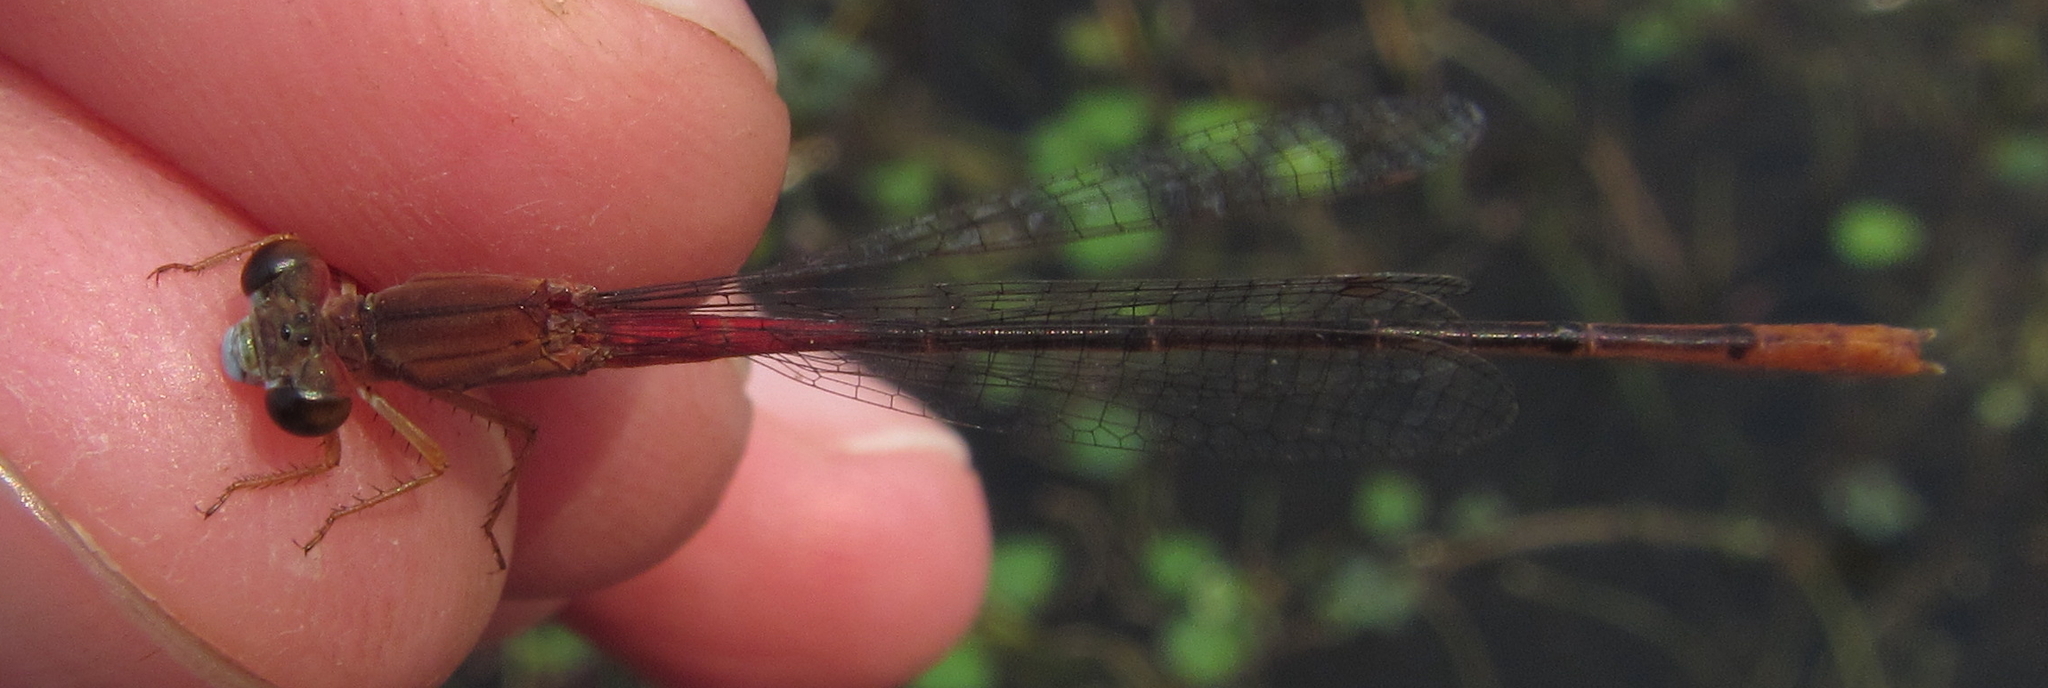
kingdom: Animalia
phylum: Arthropoda
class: Insecta
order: Odonata
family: Coenagrionidae
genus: Ceriagrion
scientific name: Ceriagrion katamborae
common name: White-faced waxtail
